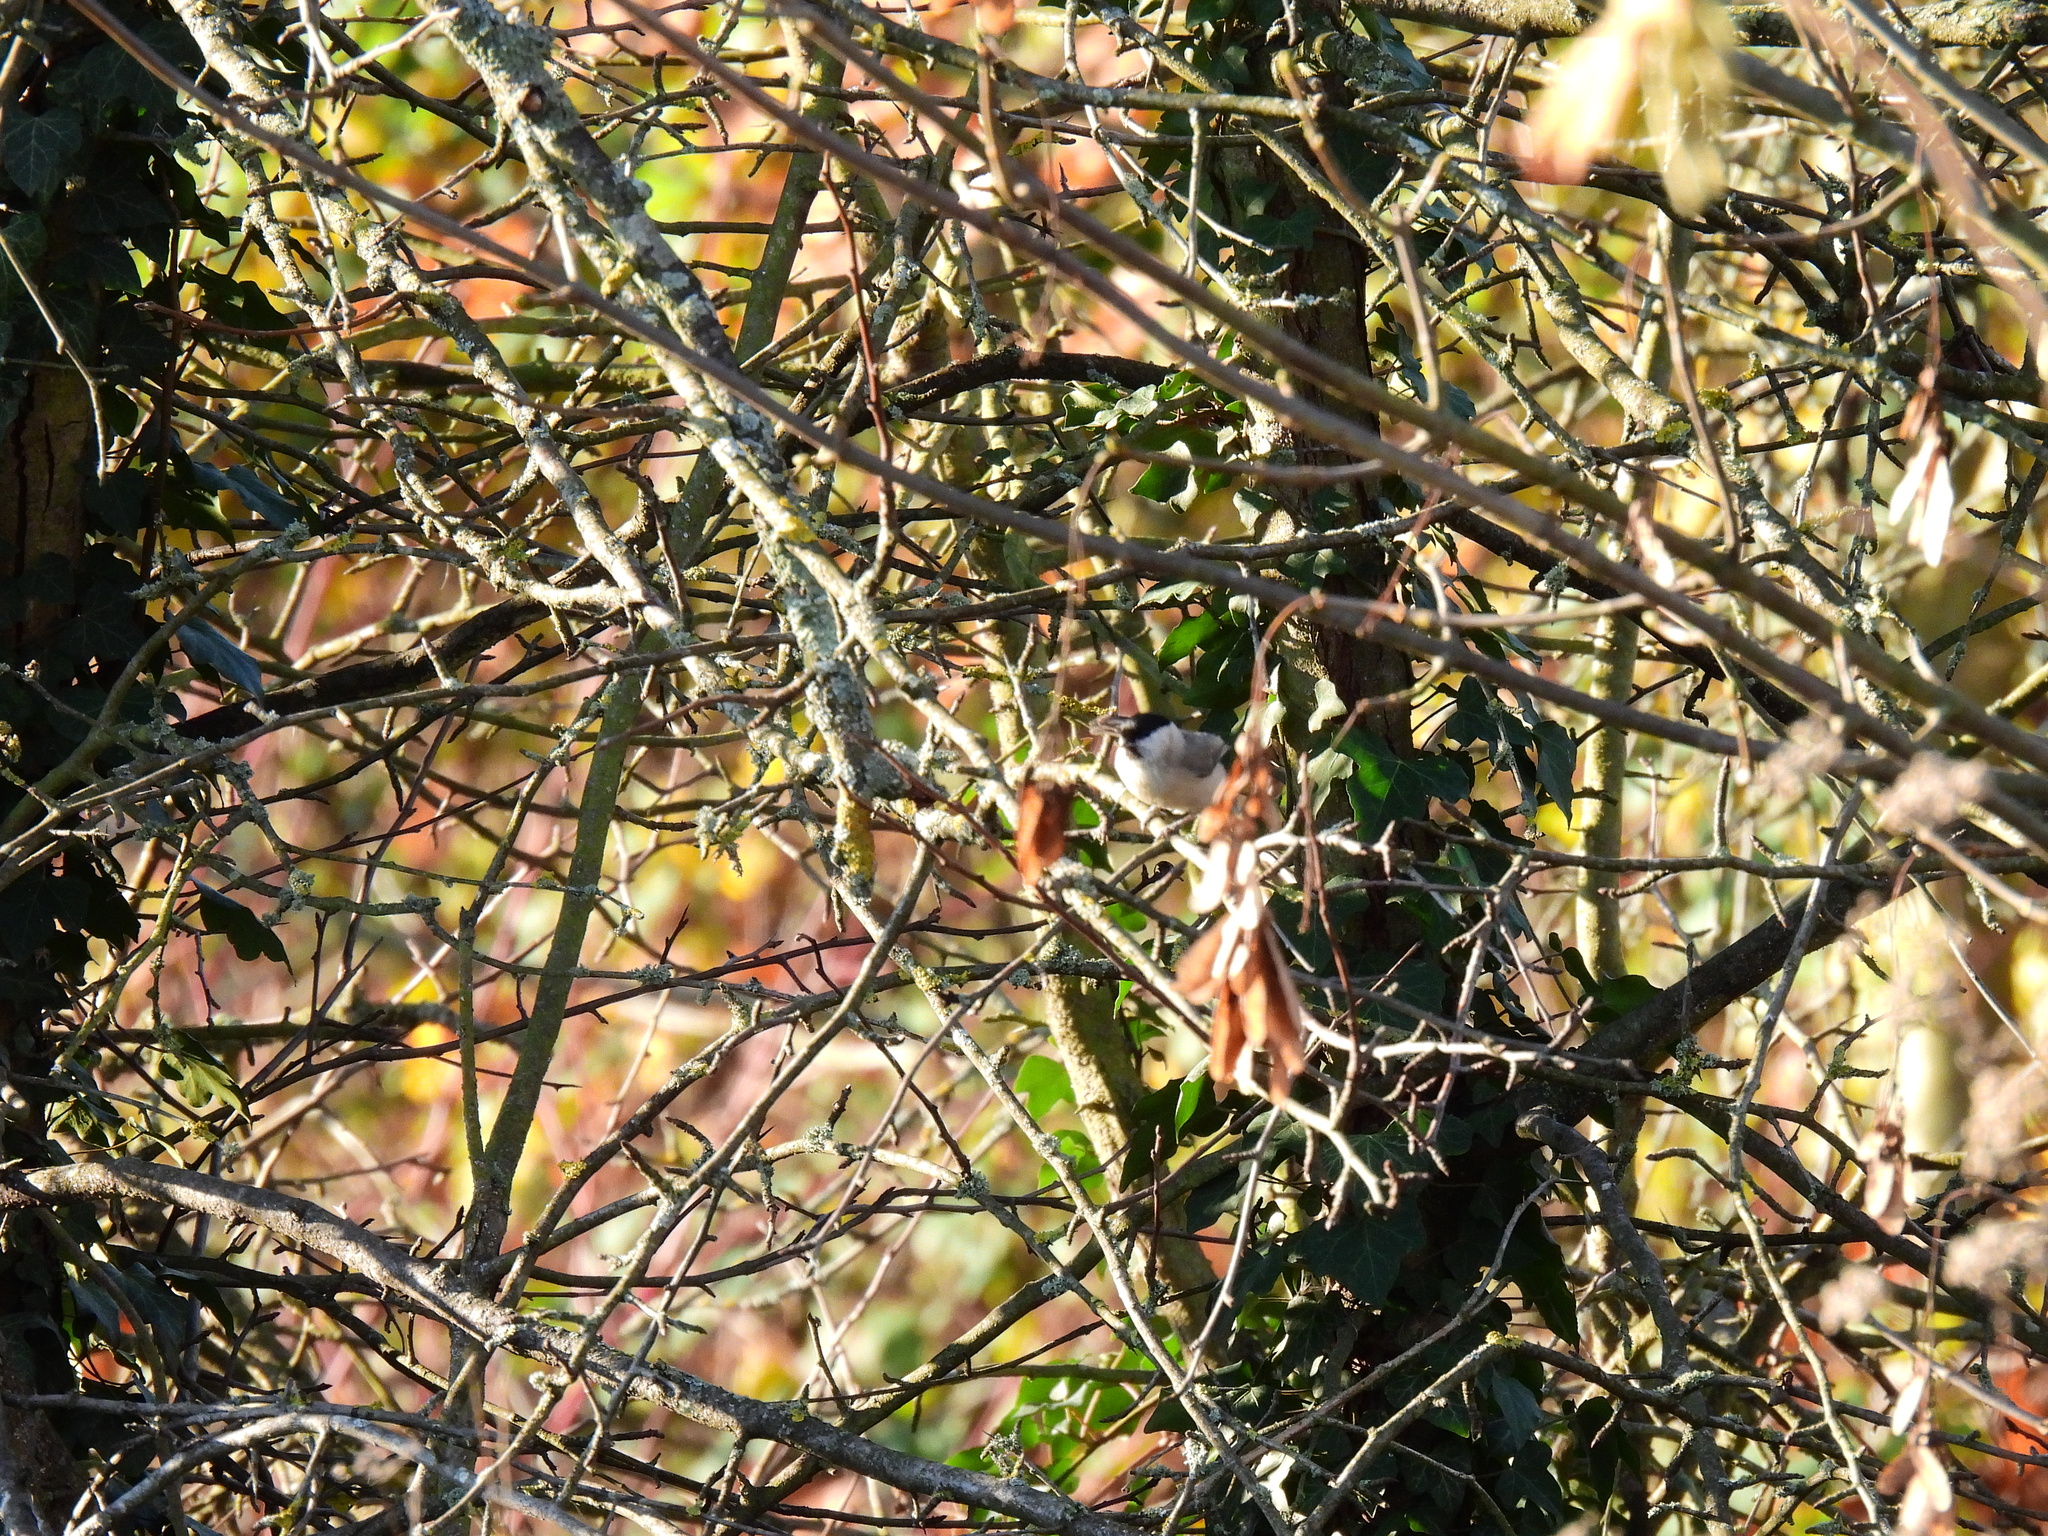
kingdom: Animalia
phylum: Chordata
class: Aves
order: Passeriformes
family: Paridae
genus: Poecile
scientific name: Poecile palustris
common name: Marsh tit
